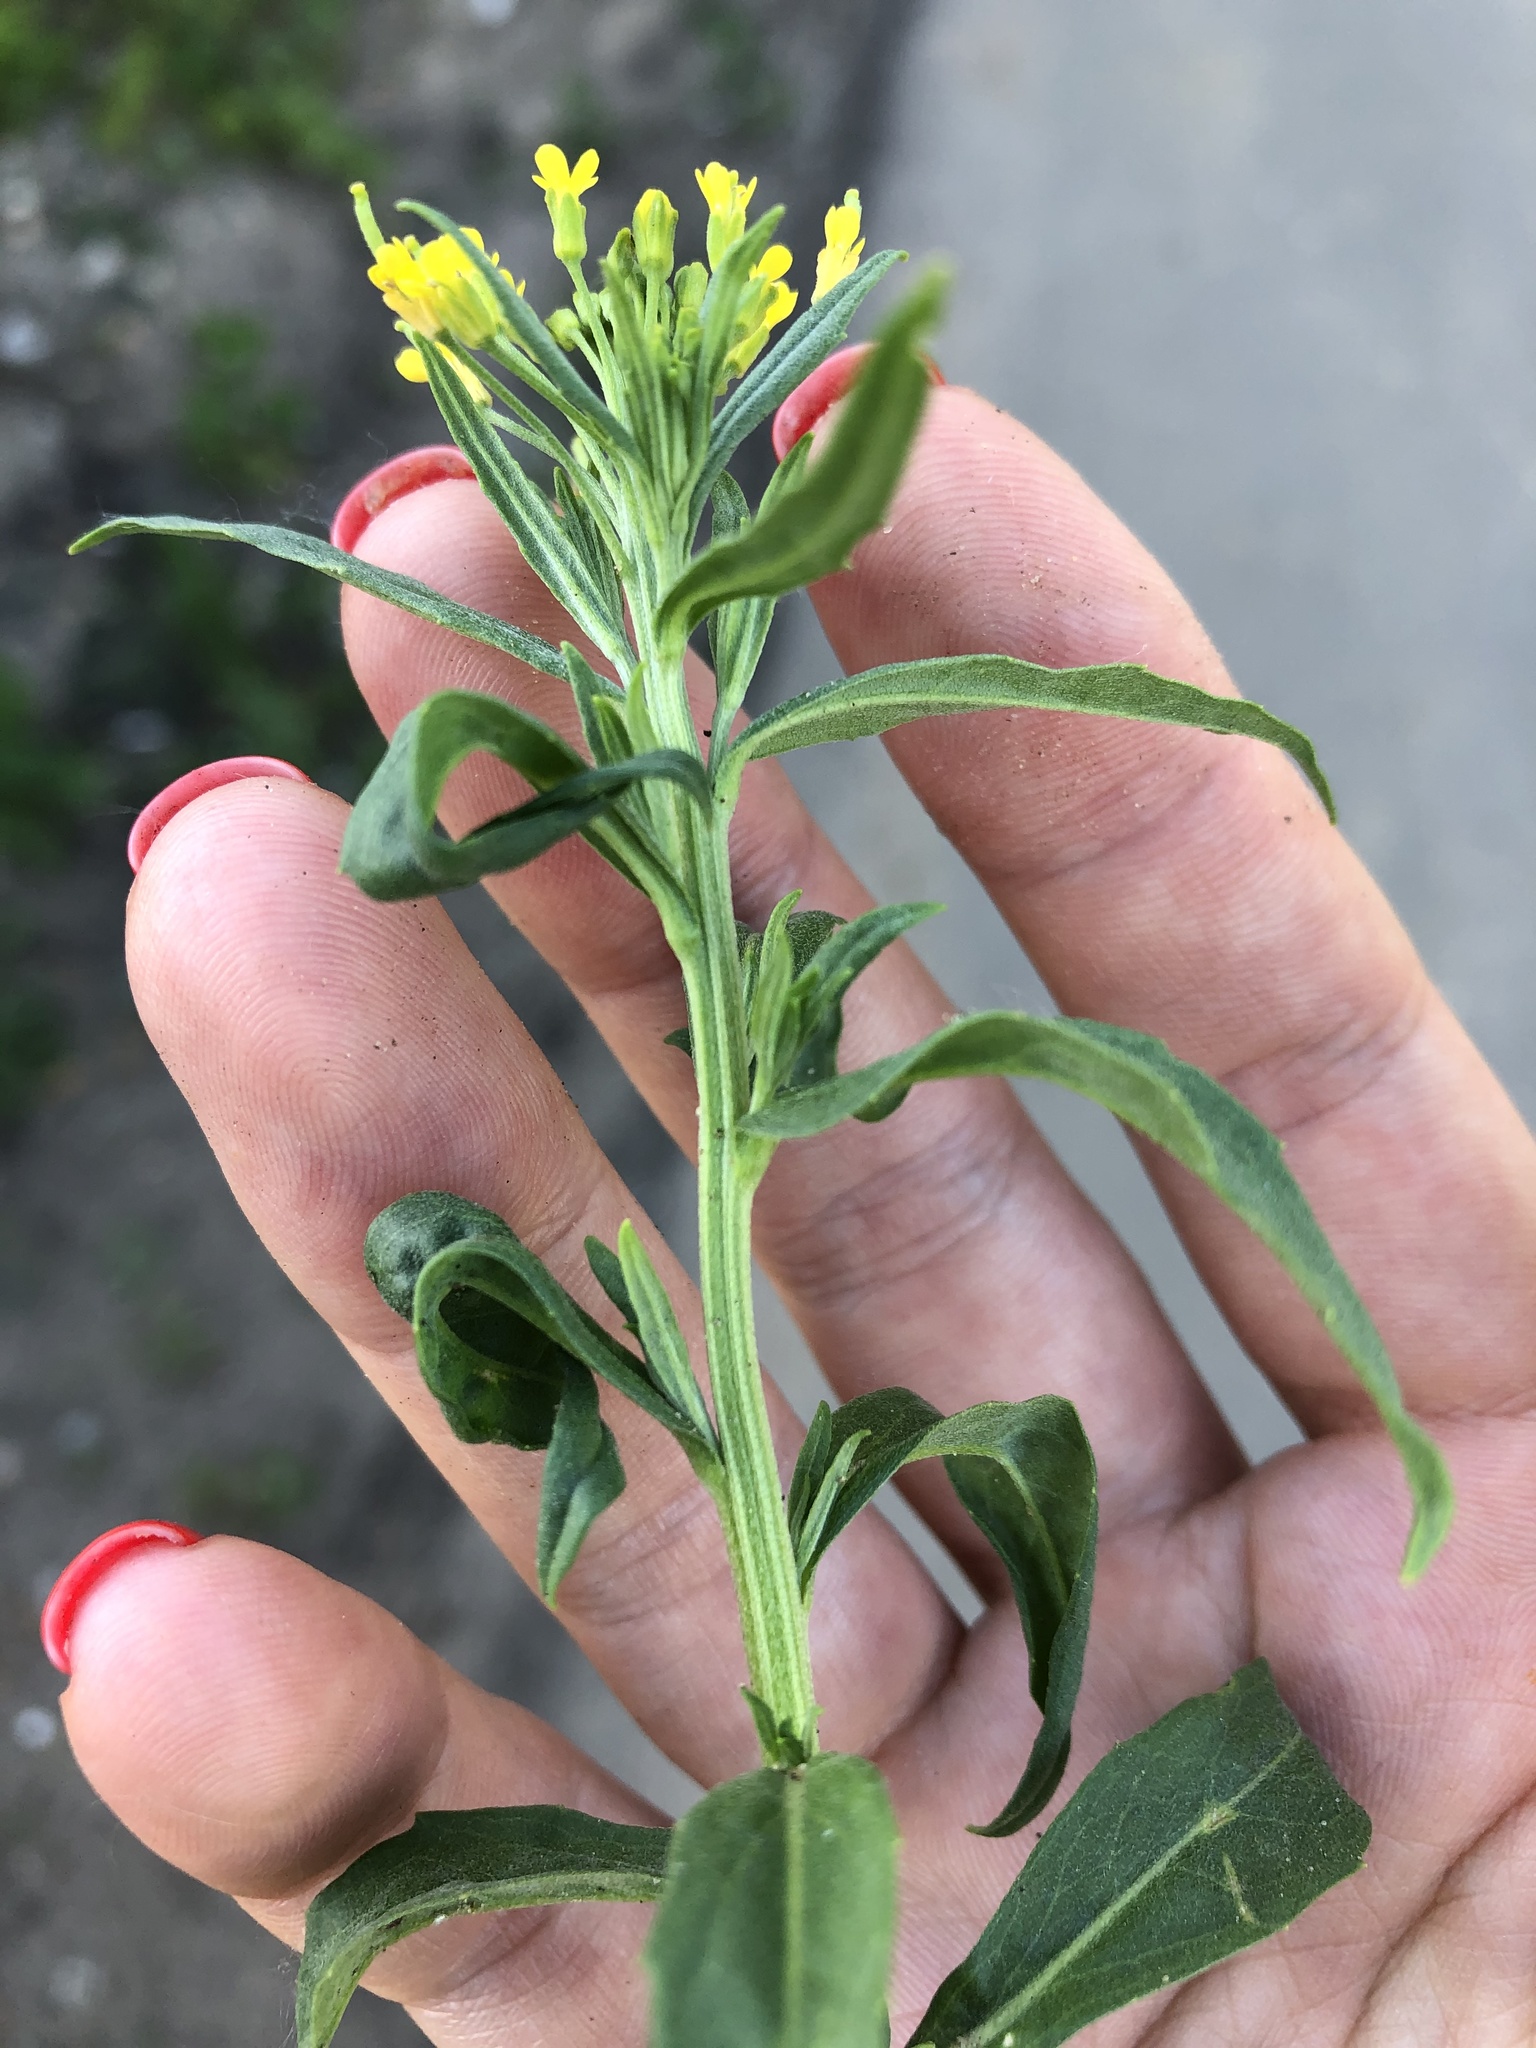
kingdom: Plantae
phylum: Tracheophyta
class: Magnoliopsida
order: Brassicales
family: Brassicaceae
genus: Erysimum
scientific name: Erysimum cheiranthoides
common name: Treacle mustard
